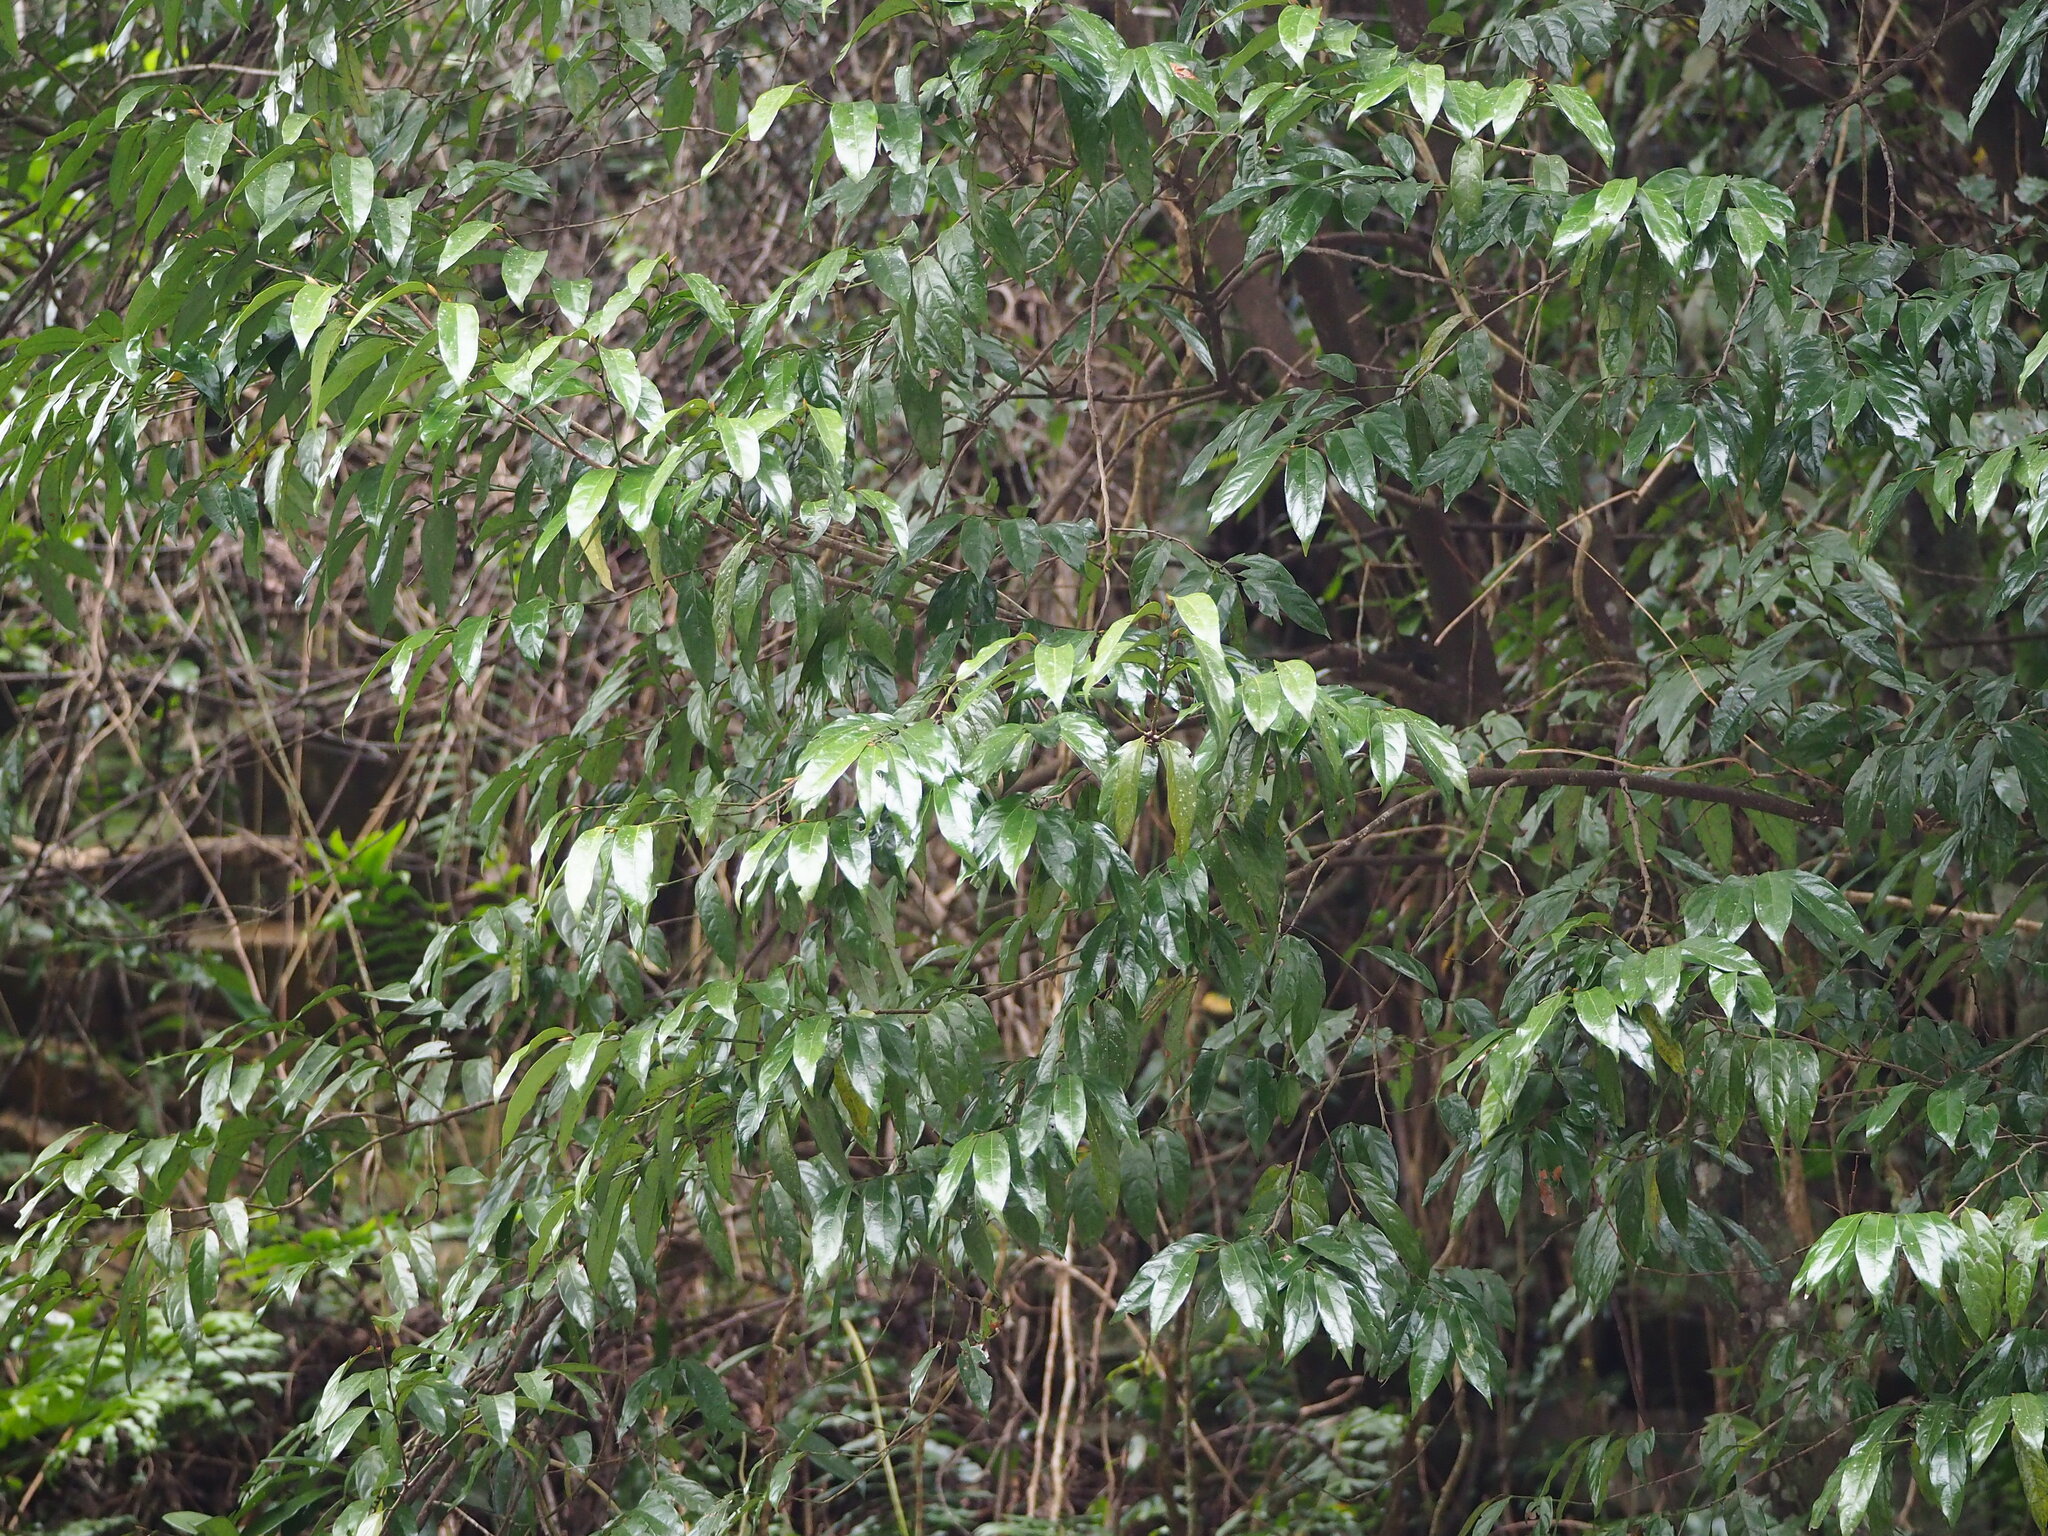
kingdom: Plantae
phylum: Tracheophyta
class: Magnoliopsida
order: Ericales
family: Ebenaceae
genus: Diospyros
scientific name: Diospyros eriantha
